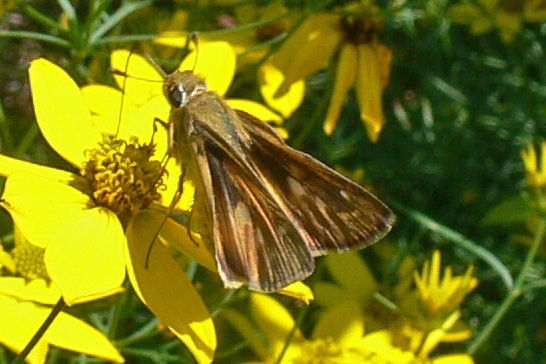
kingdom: Animalia
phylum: Arthropoda
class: Insecta
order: Lepidoptera
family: Hesperiidae
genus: Atalopedes
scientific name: Atalopedes
